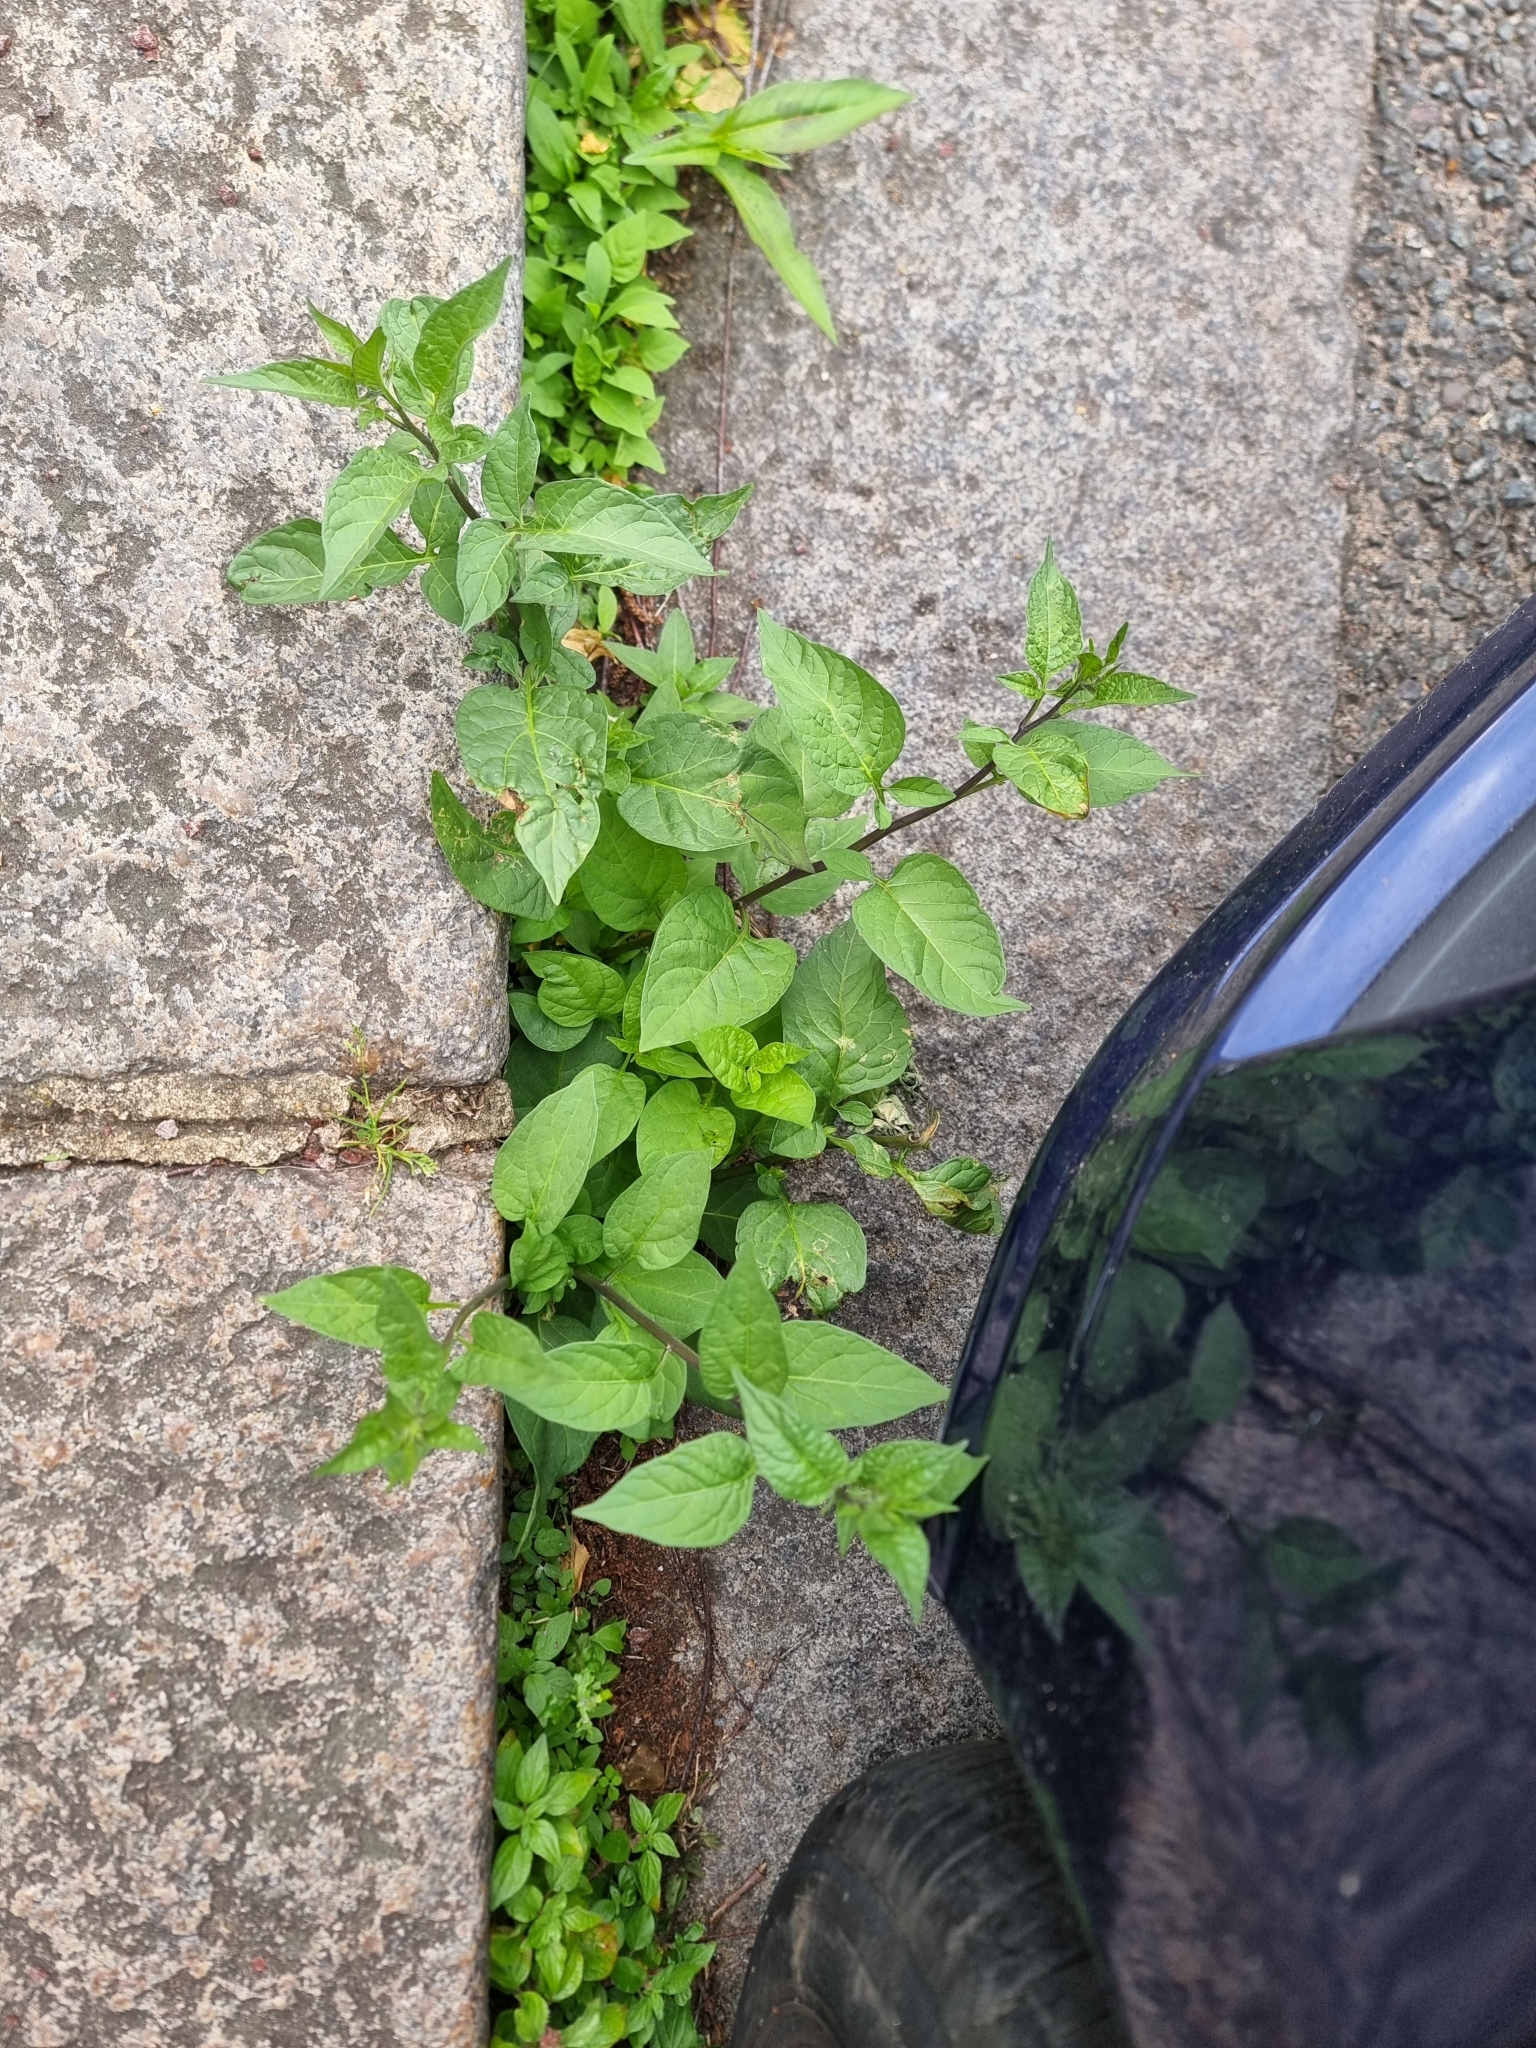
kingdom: Plantae
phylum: Tracheophyta
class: Magnoliopsida
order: Solanales
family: Solanaceae
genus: Solanum
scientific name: Solanum dulcamara
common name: Climbing nightshade
